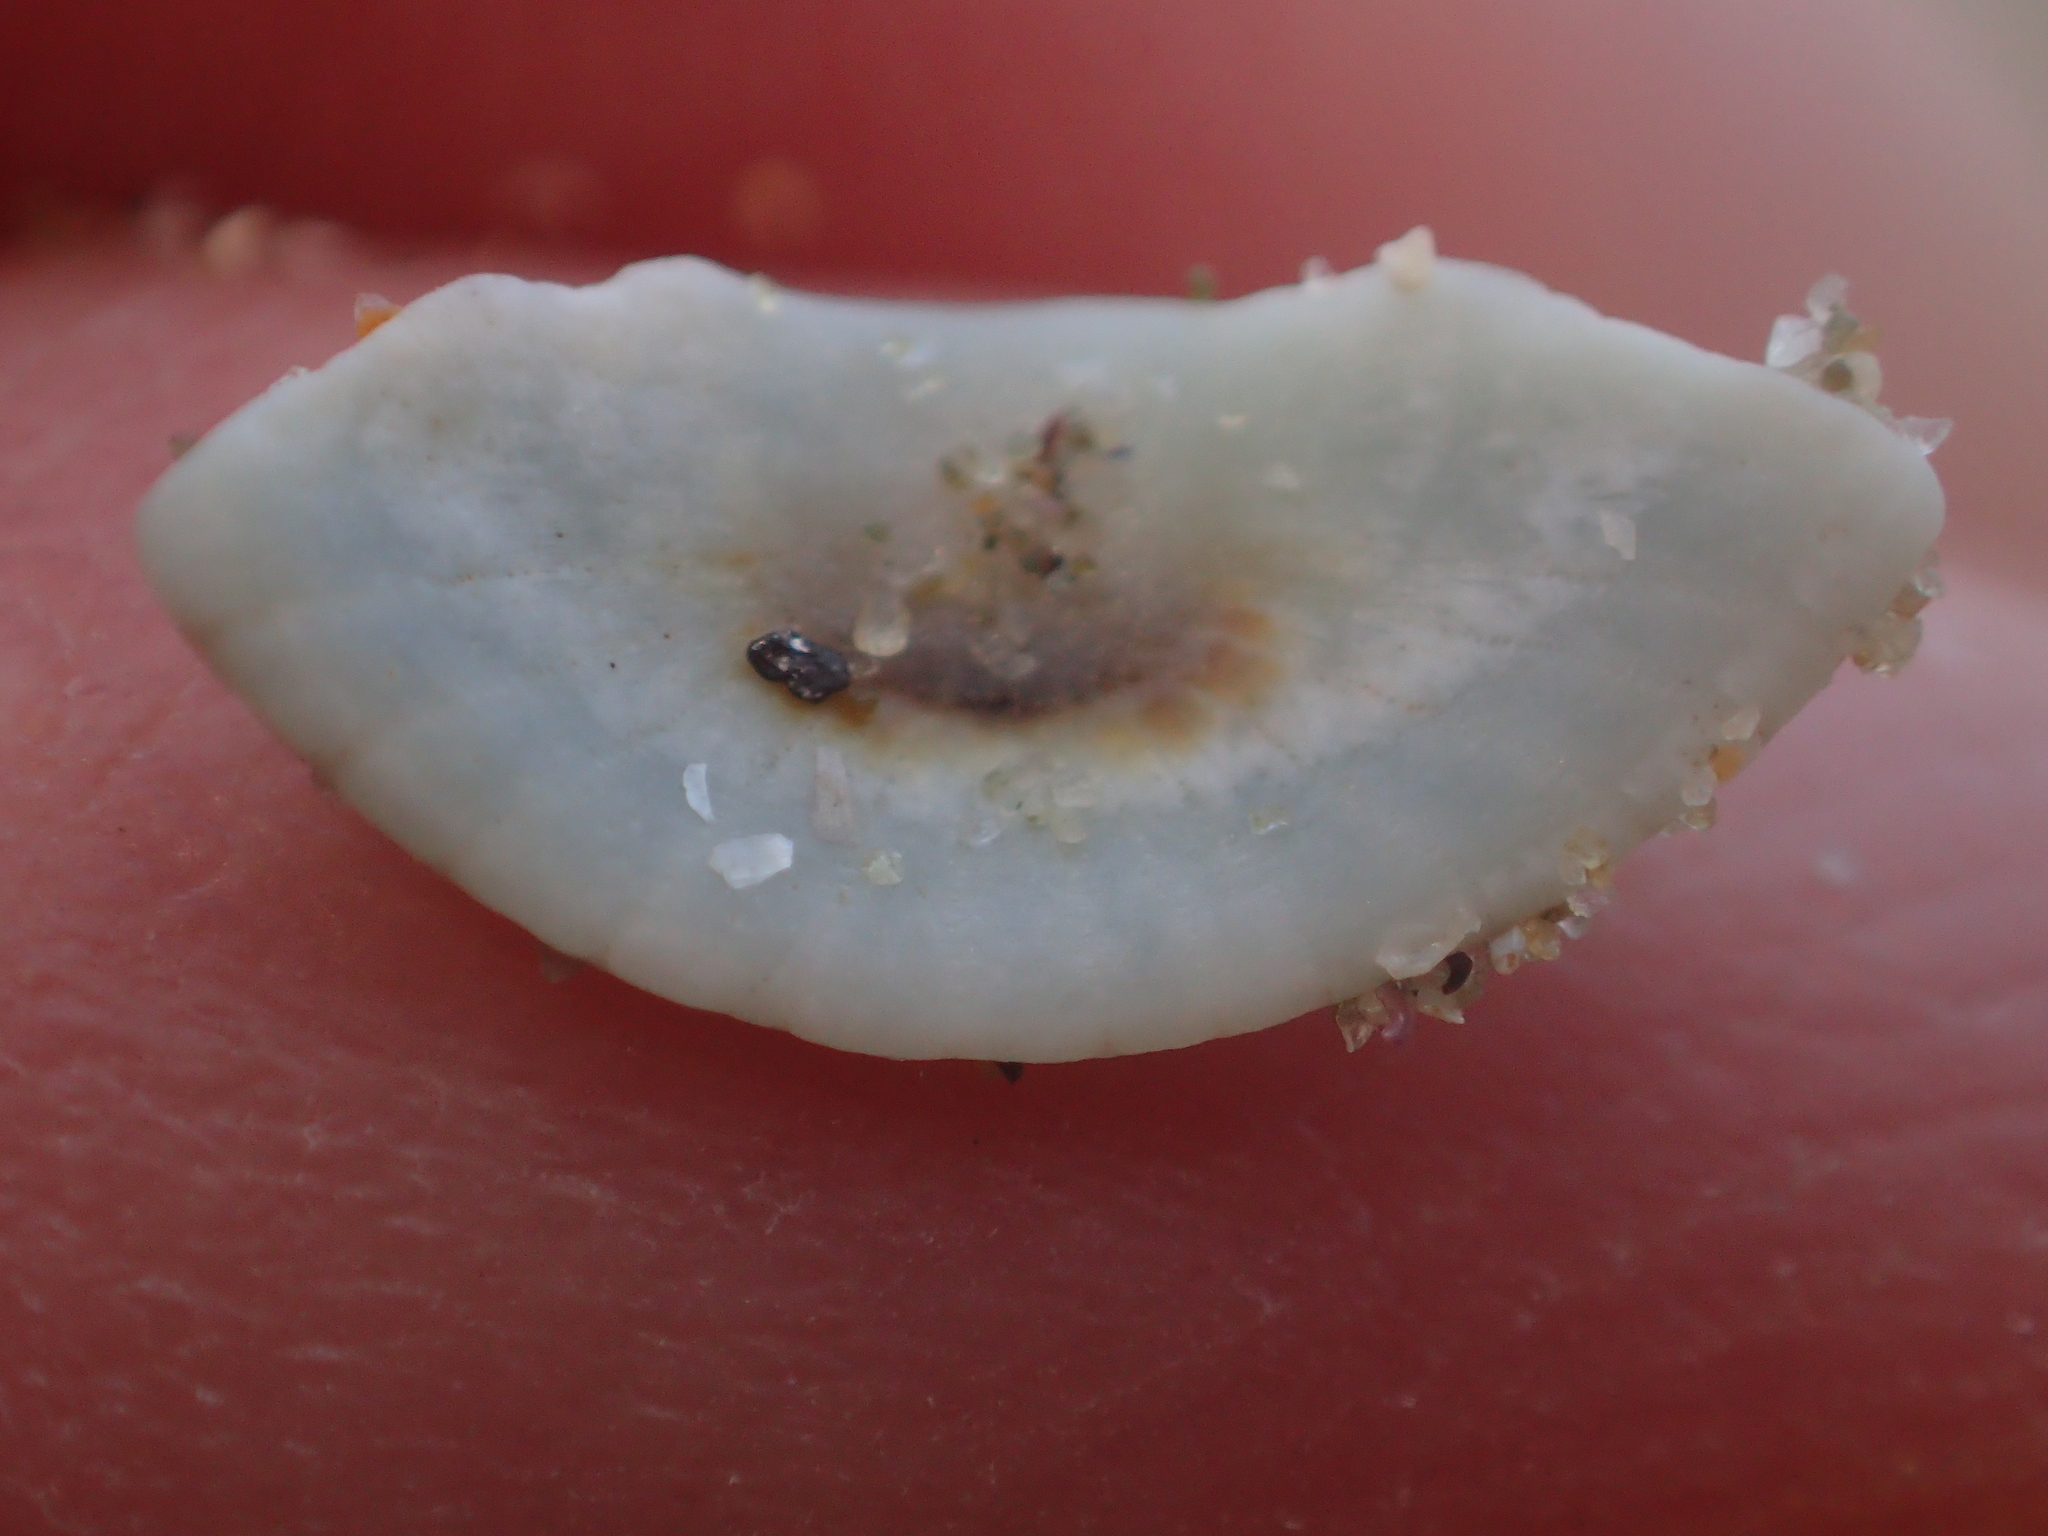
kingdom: Animalia
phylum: Mollusca
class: Polyplacophora
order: Chitonida
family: Chitonidae
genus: Chiton
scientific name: Chiton glaucus
